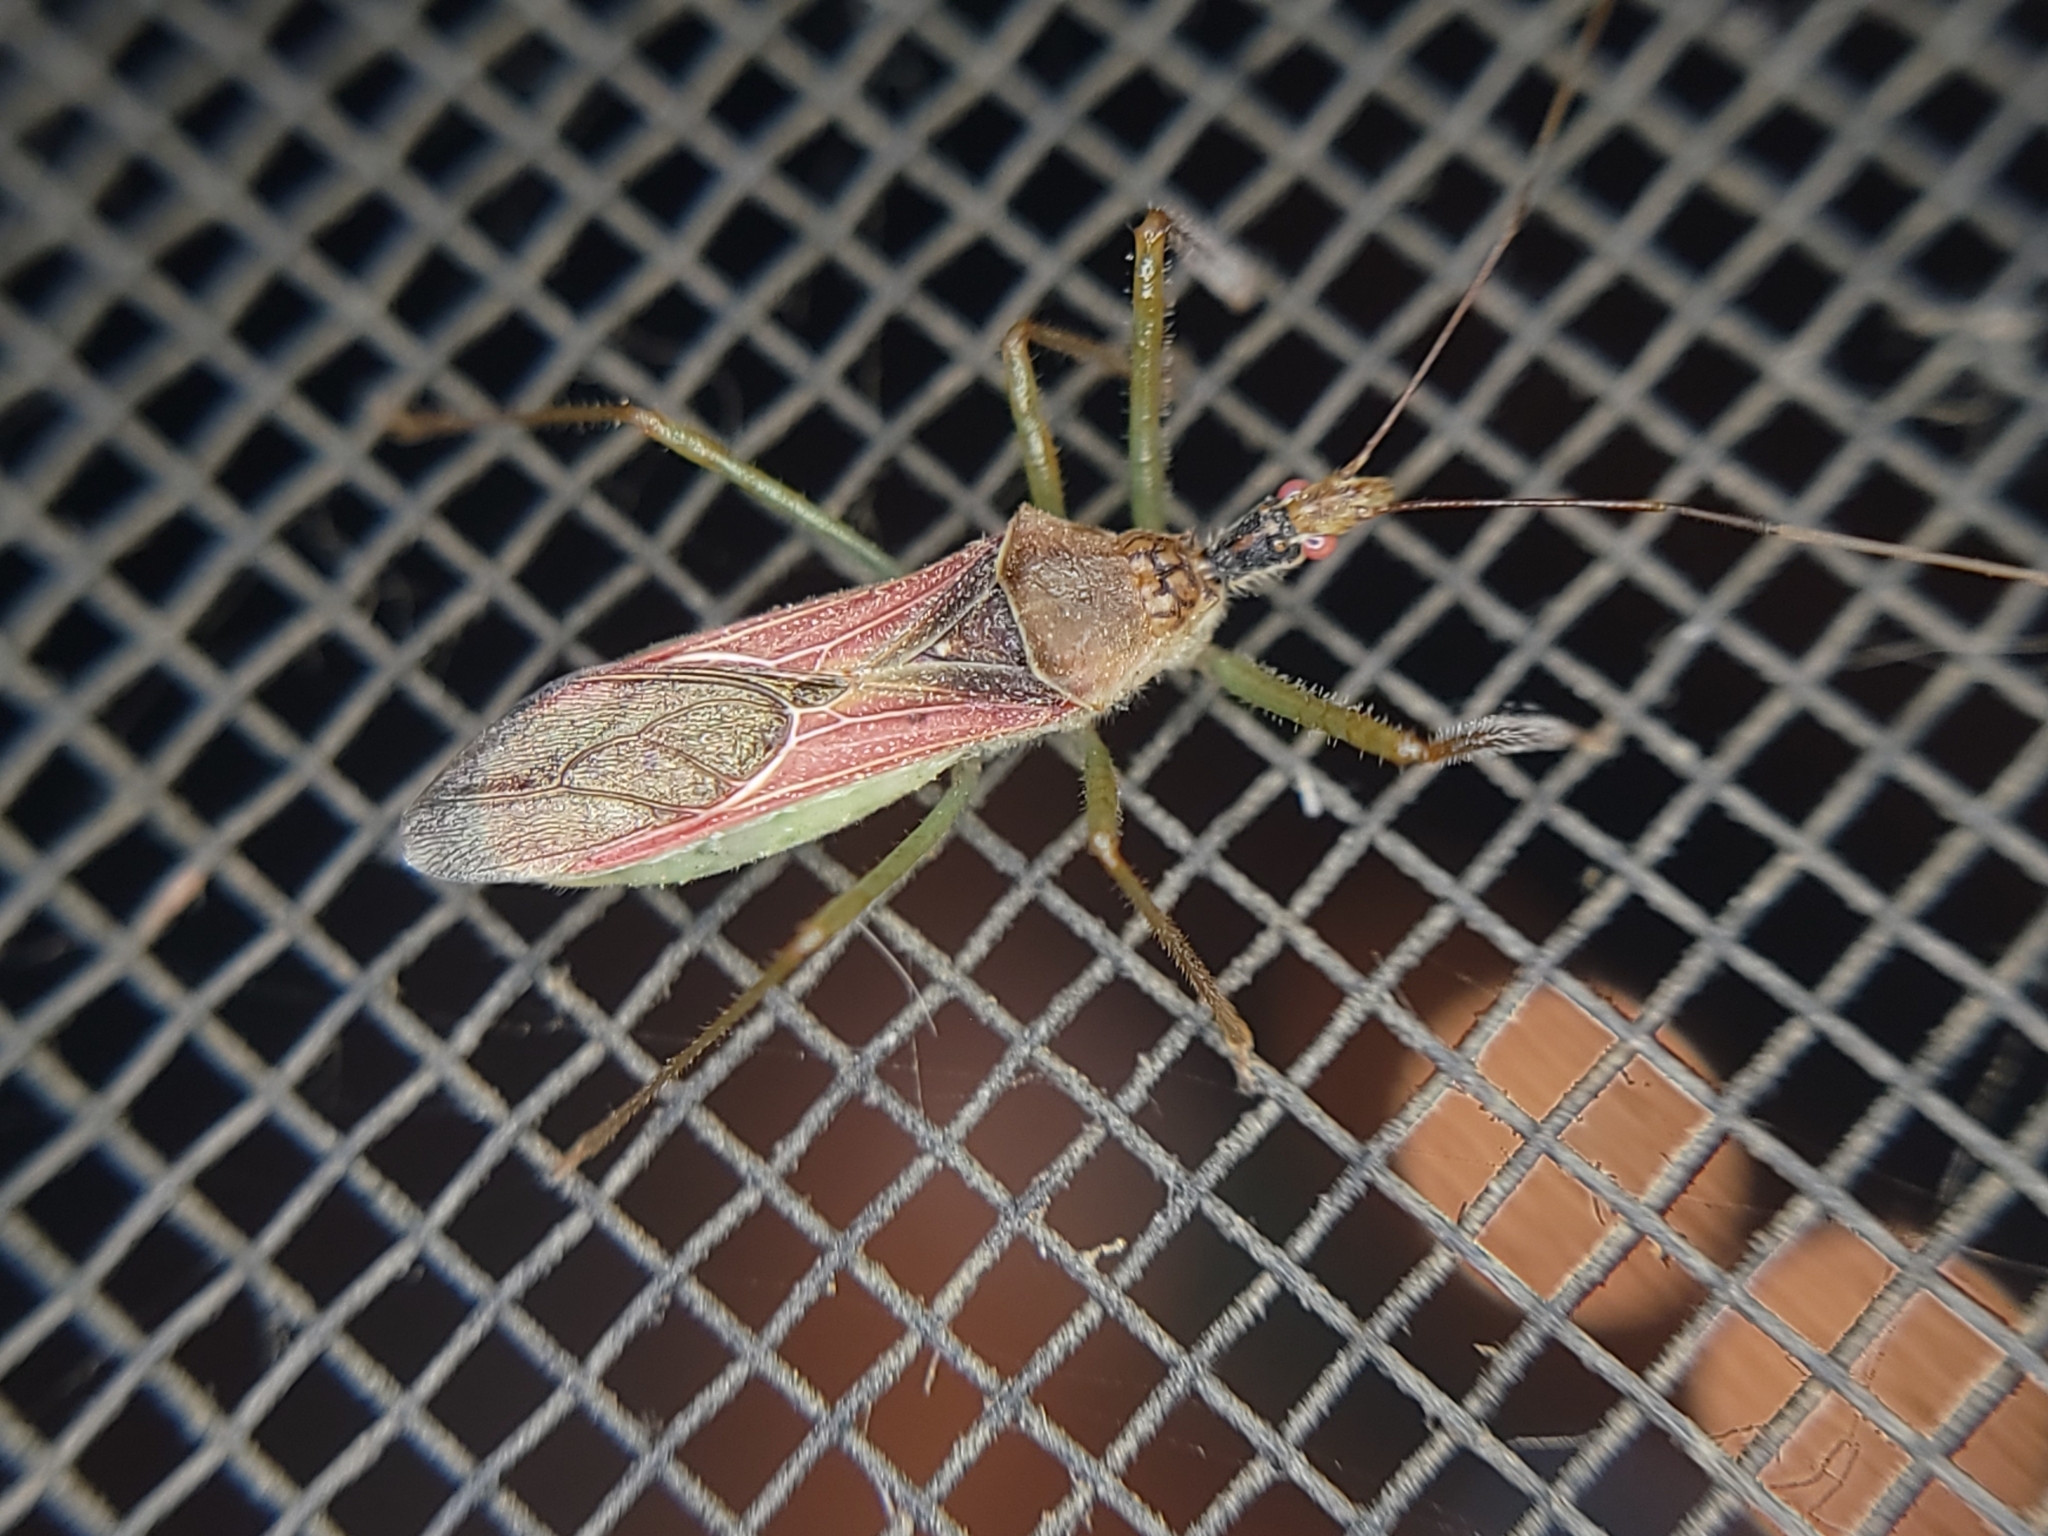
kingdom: Animalia
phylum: Arthropoda
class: Insecta
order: Hemiptera
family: Reduviidae
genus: Zelus
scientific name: Zelus renardii
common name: Assassin bug
